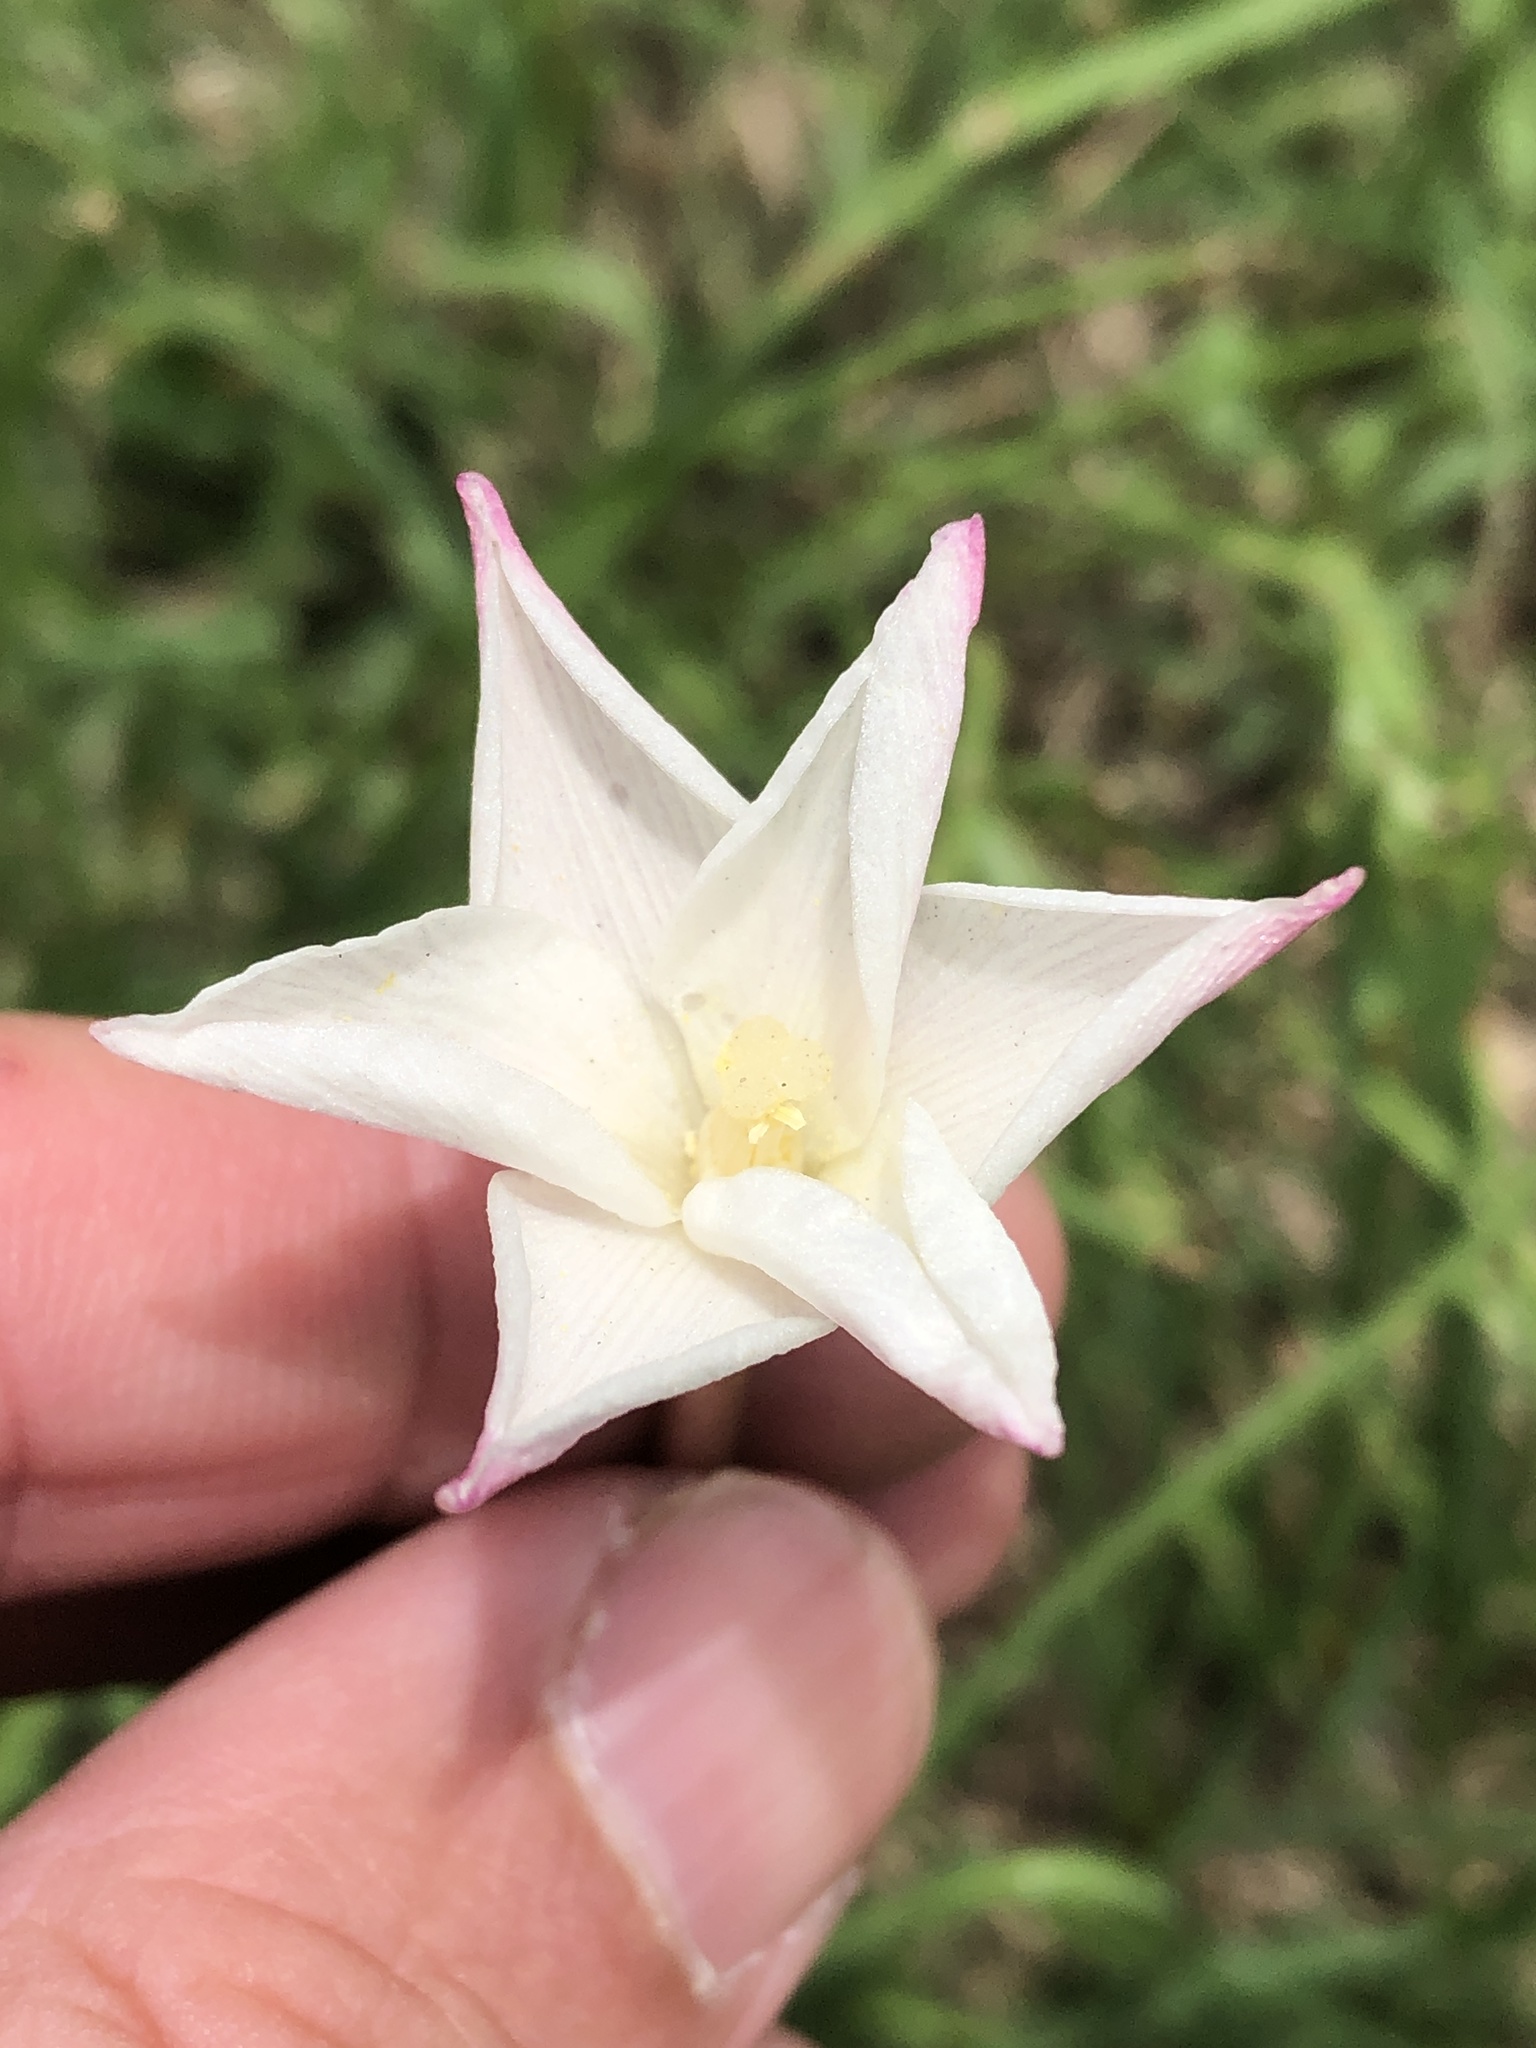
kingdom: Plantae
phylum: Tracheophyta
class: Liliopsida
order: Asparagales
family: Amaryllidaceae
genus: Zephyranthes
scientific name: Zephyranthes chlorosolen
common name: Evening rain-lily
